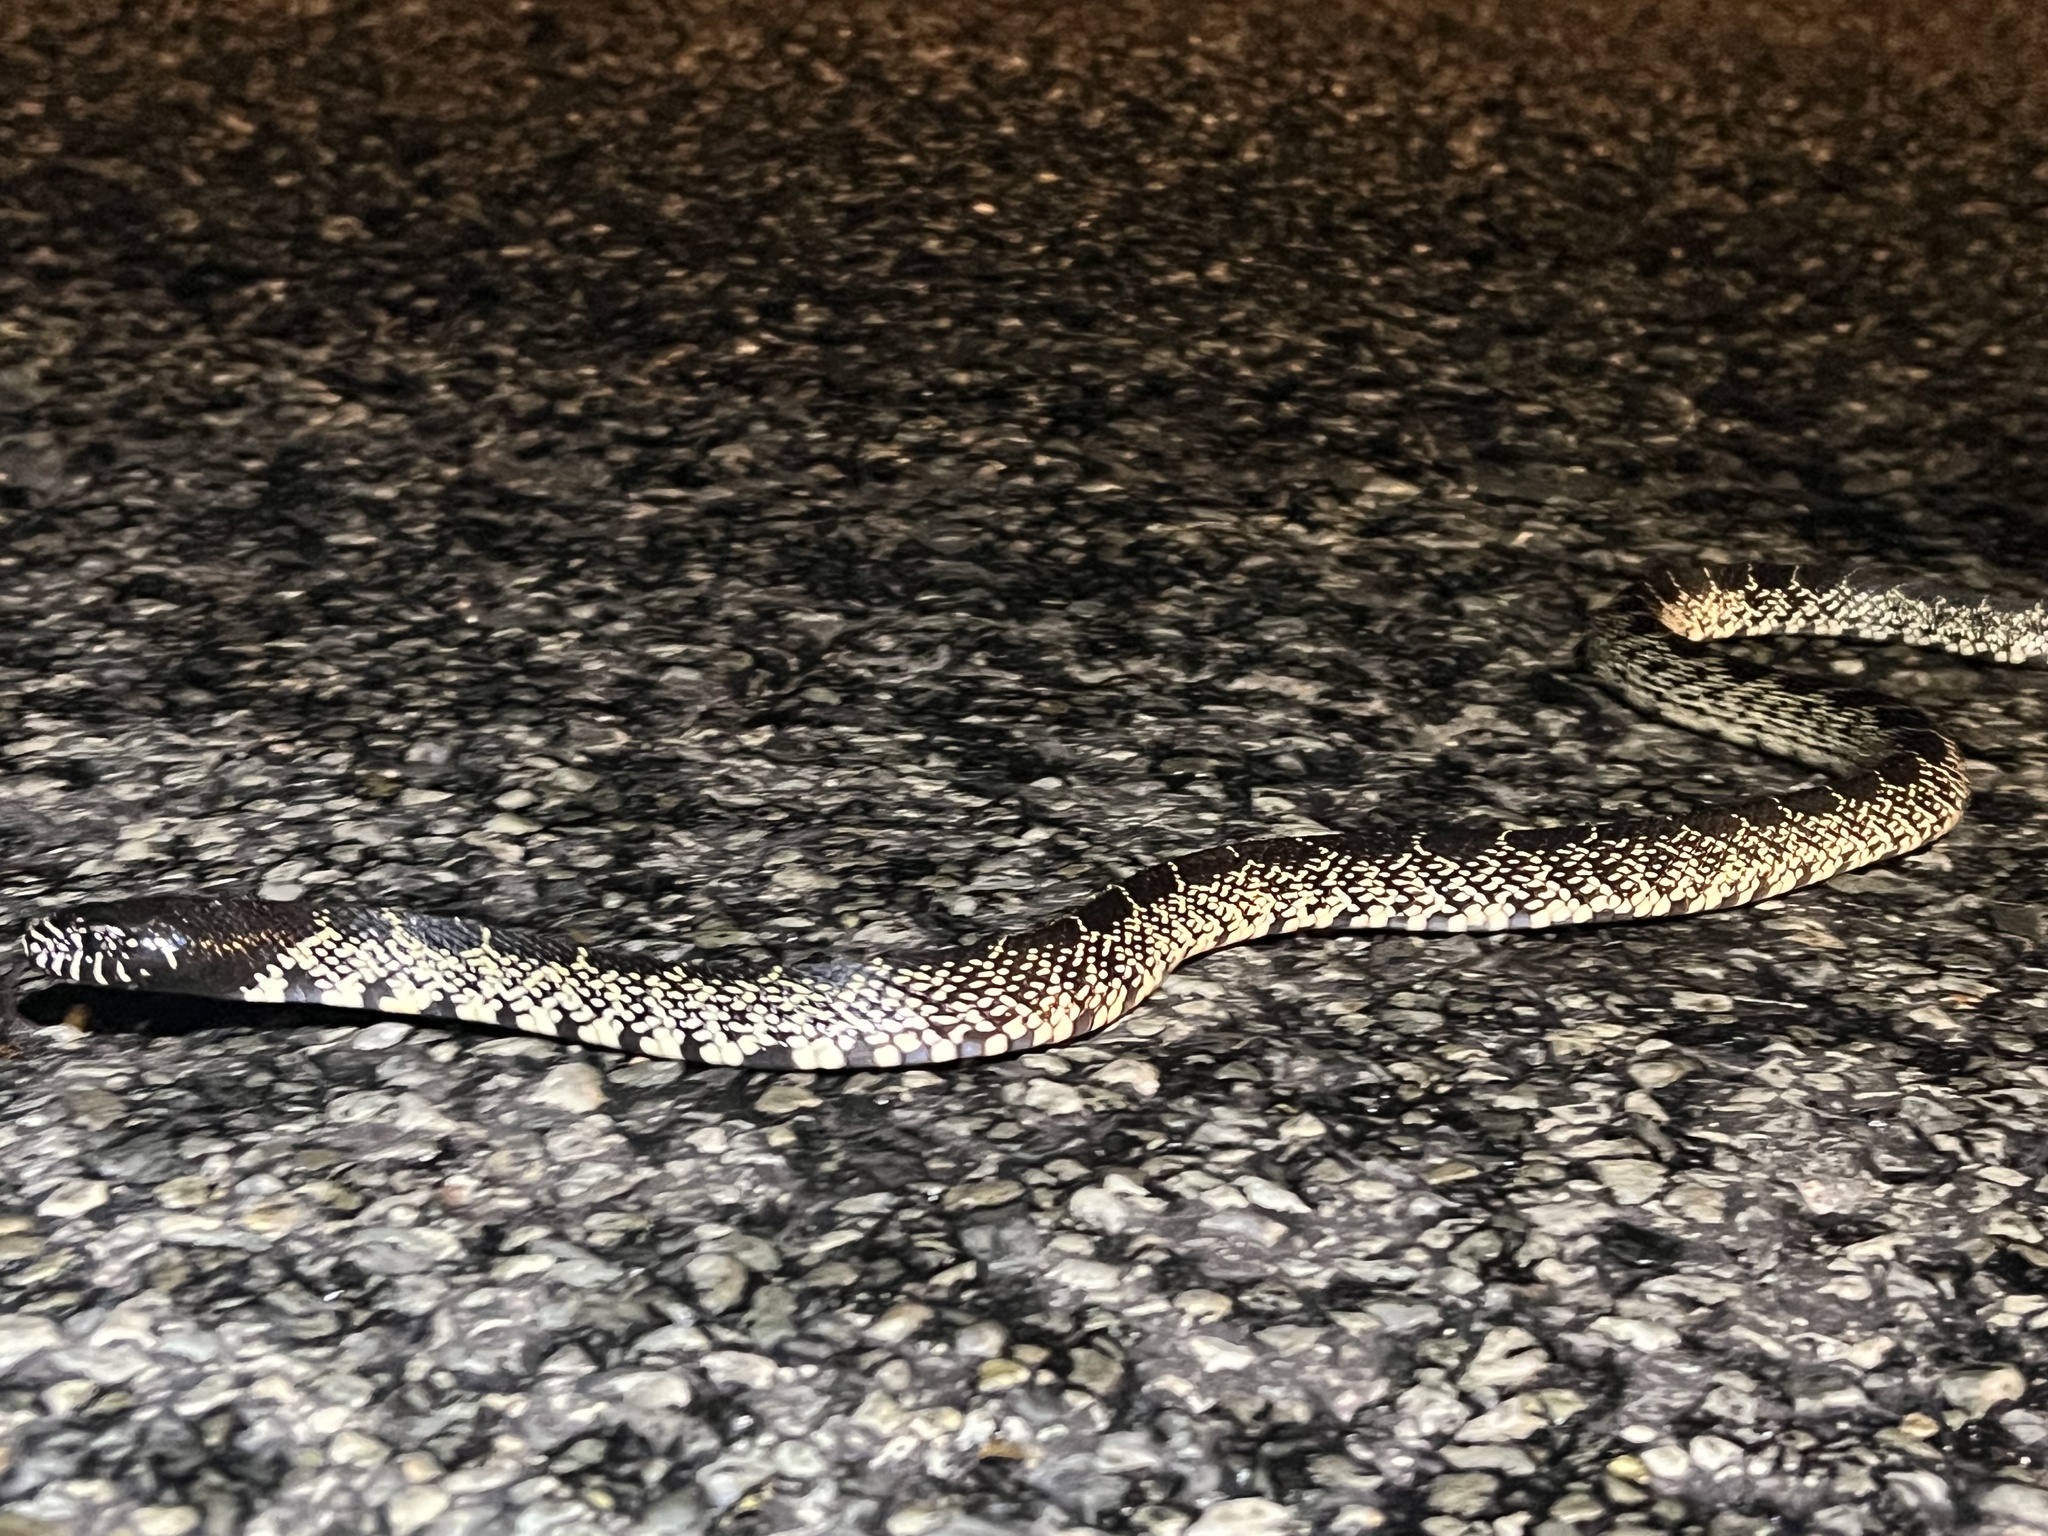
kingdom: Animalia
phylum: Chordata
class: Squamata
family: Colubridae
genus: Lampropeltis
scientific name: Lampropeltis splendida
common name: Desert kingsnake
